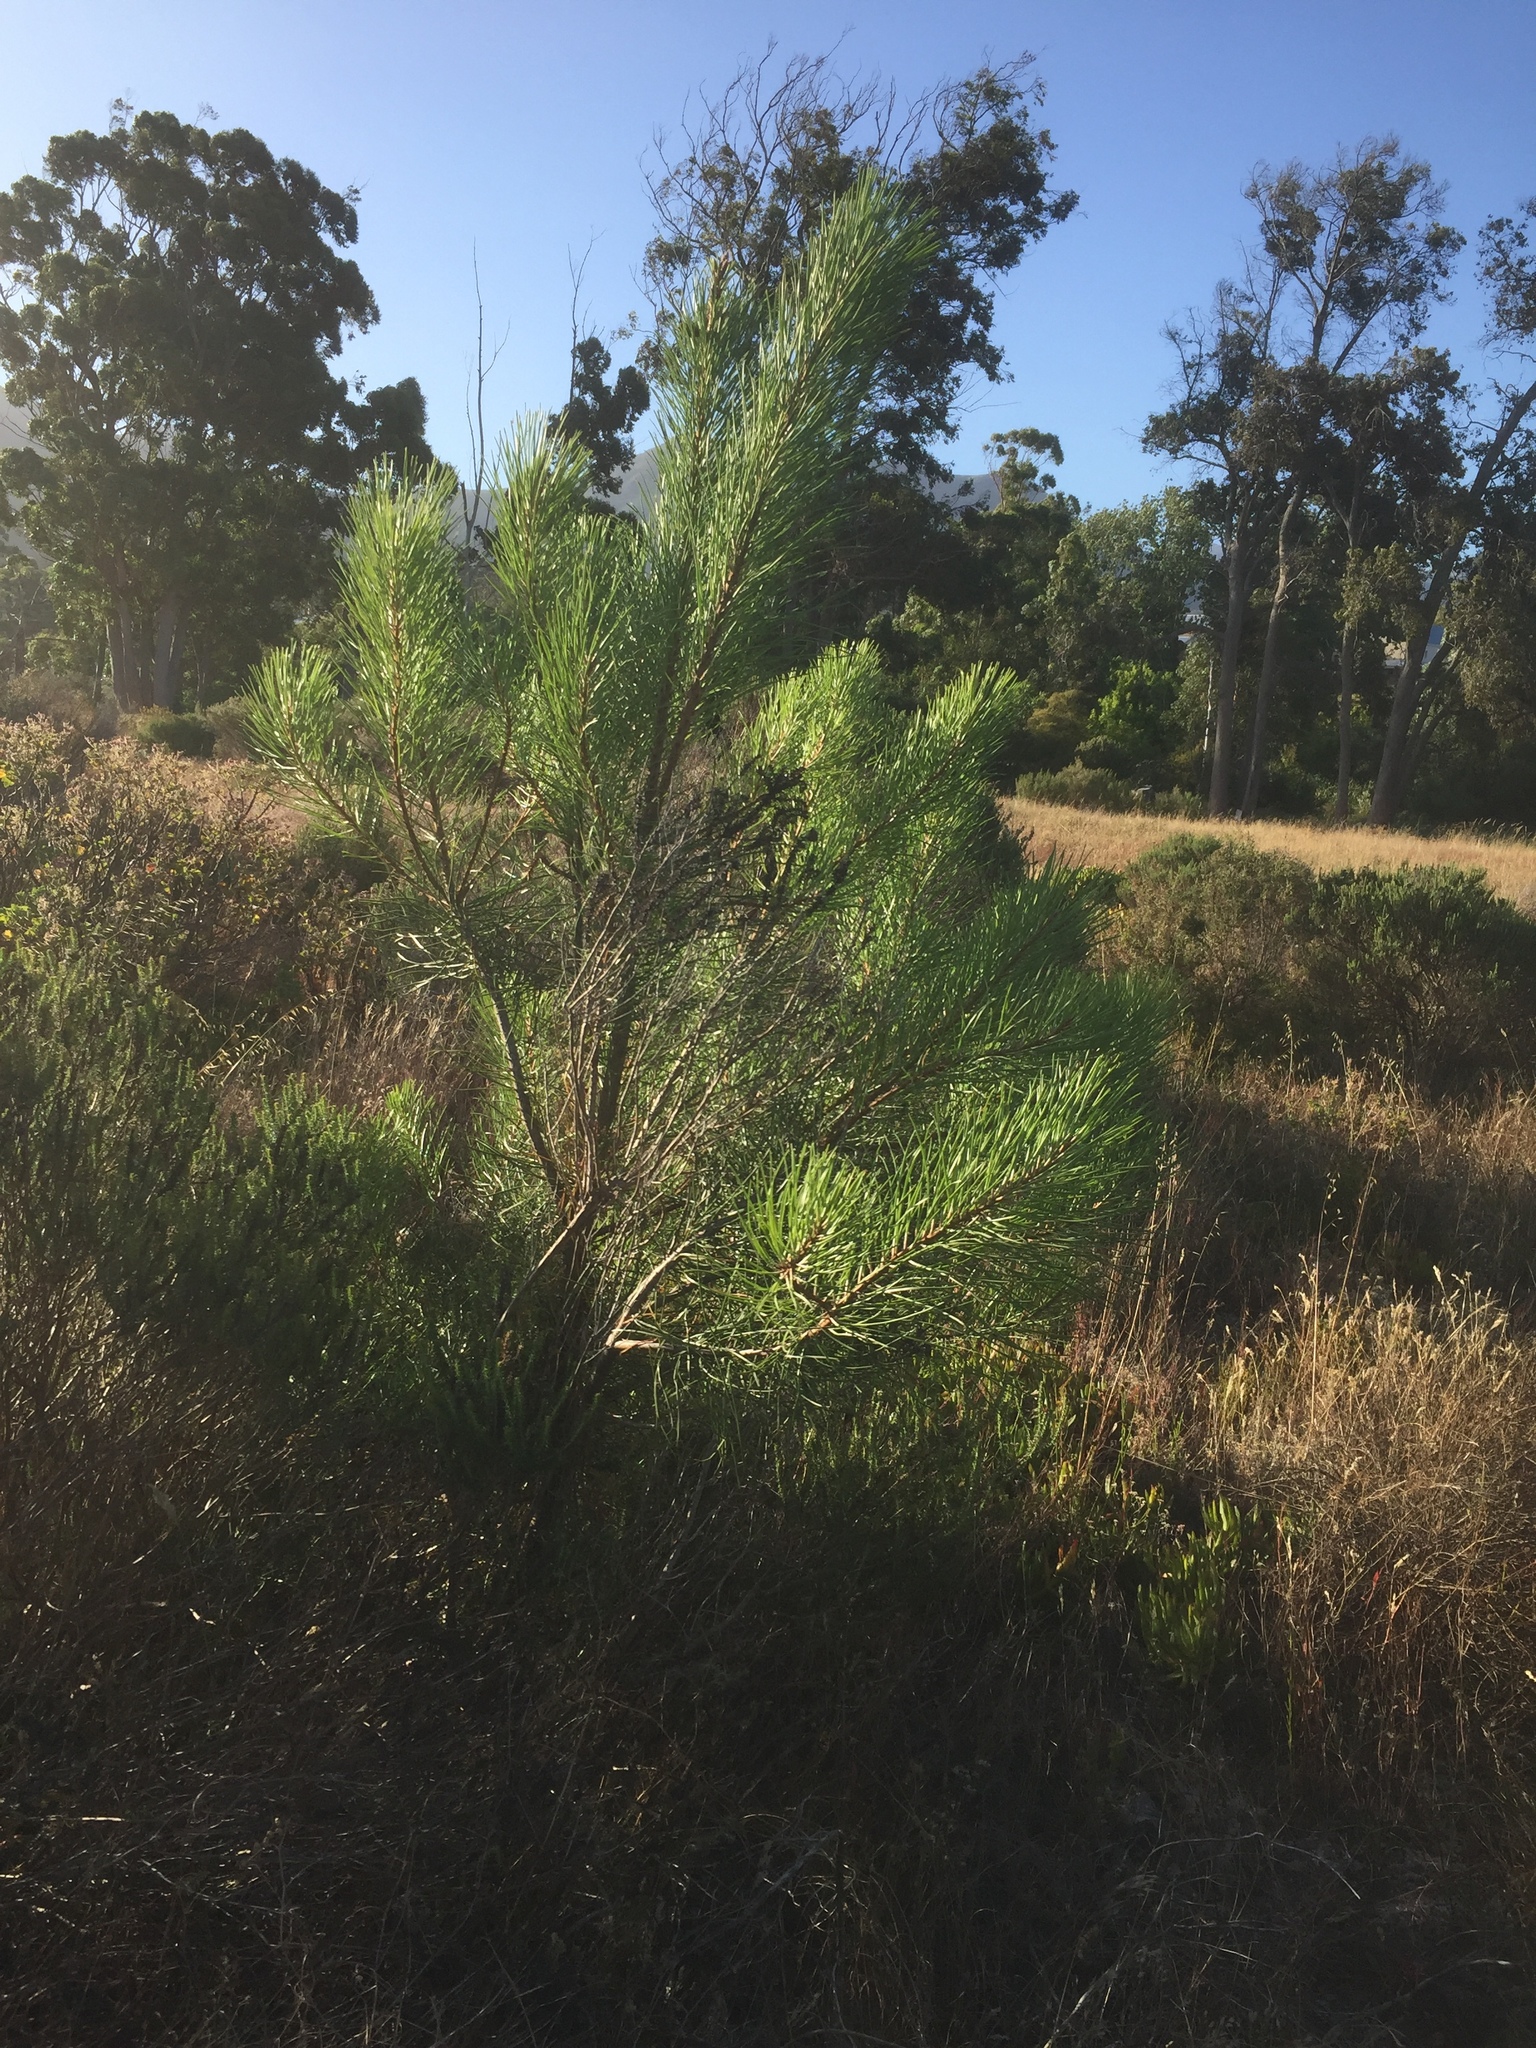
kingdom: Plantae
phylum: Tracheophyta
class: Pinopsida
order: Pinales
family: Pinaceae
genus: Pinus
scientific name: Pinus pinaster
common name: Maritime pine
